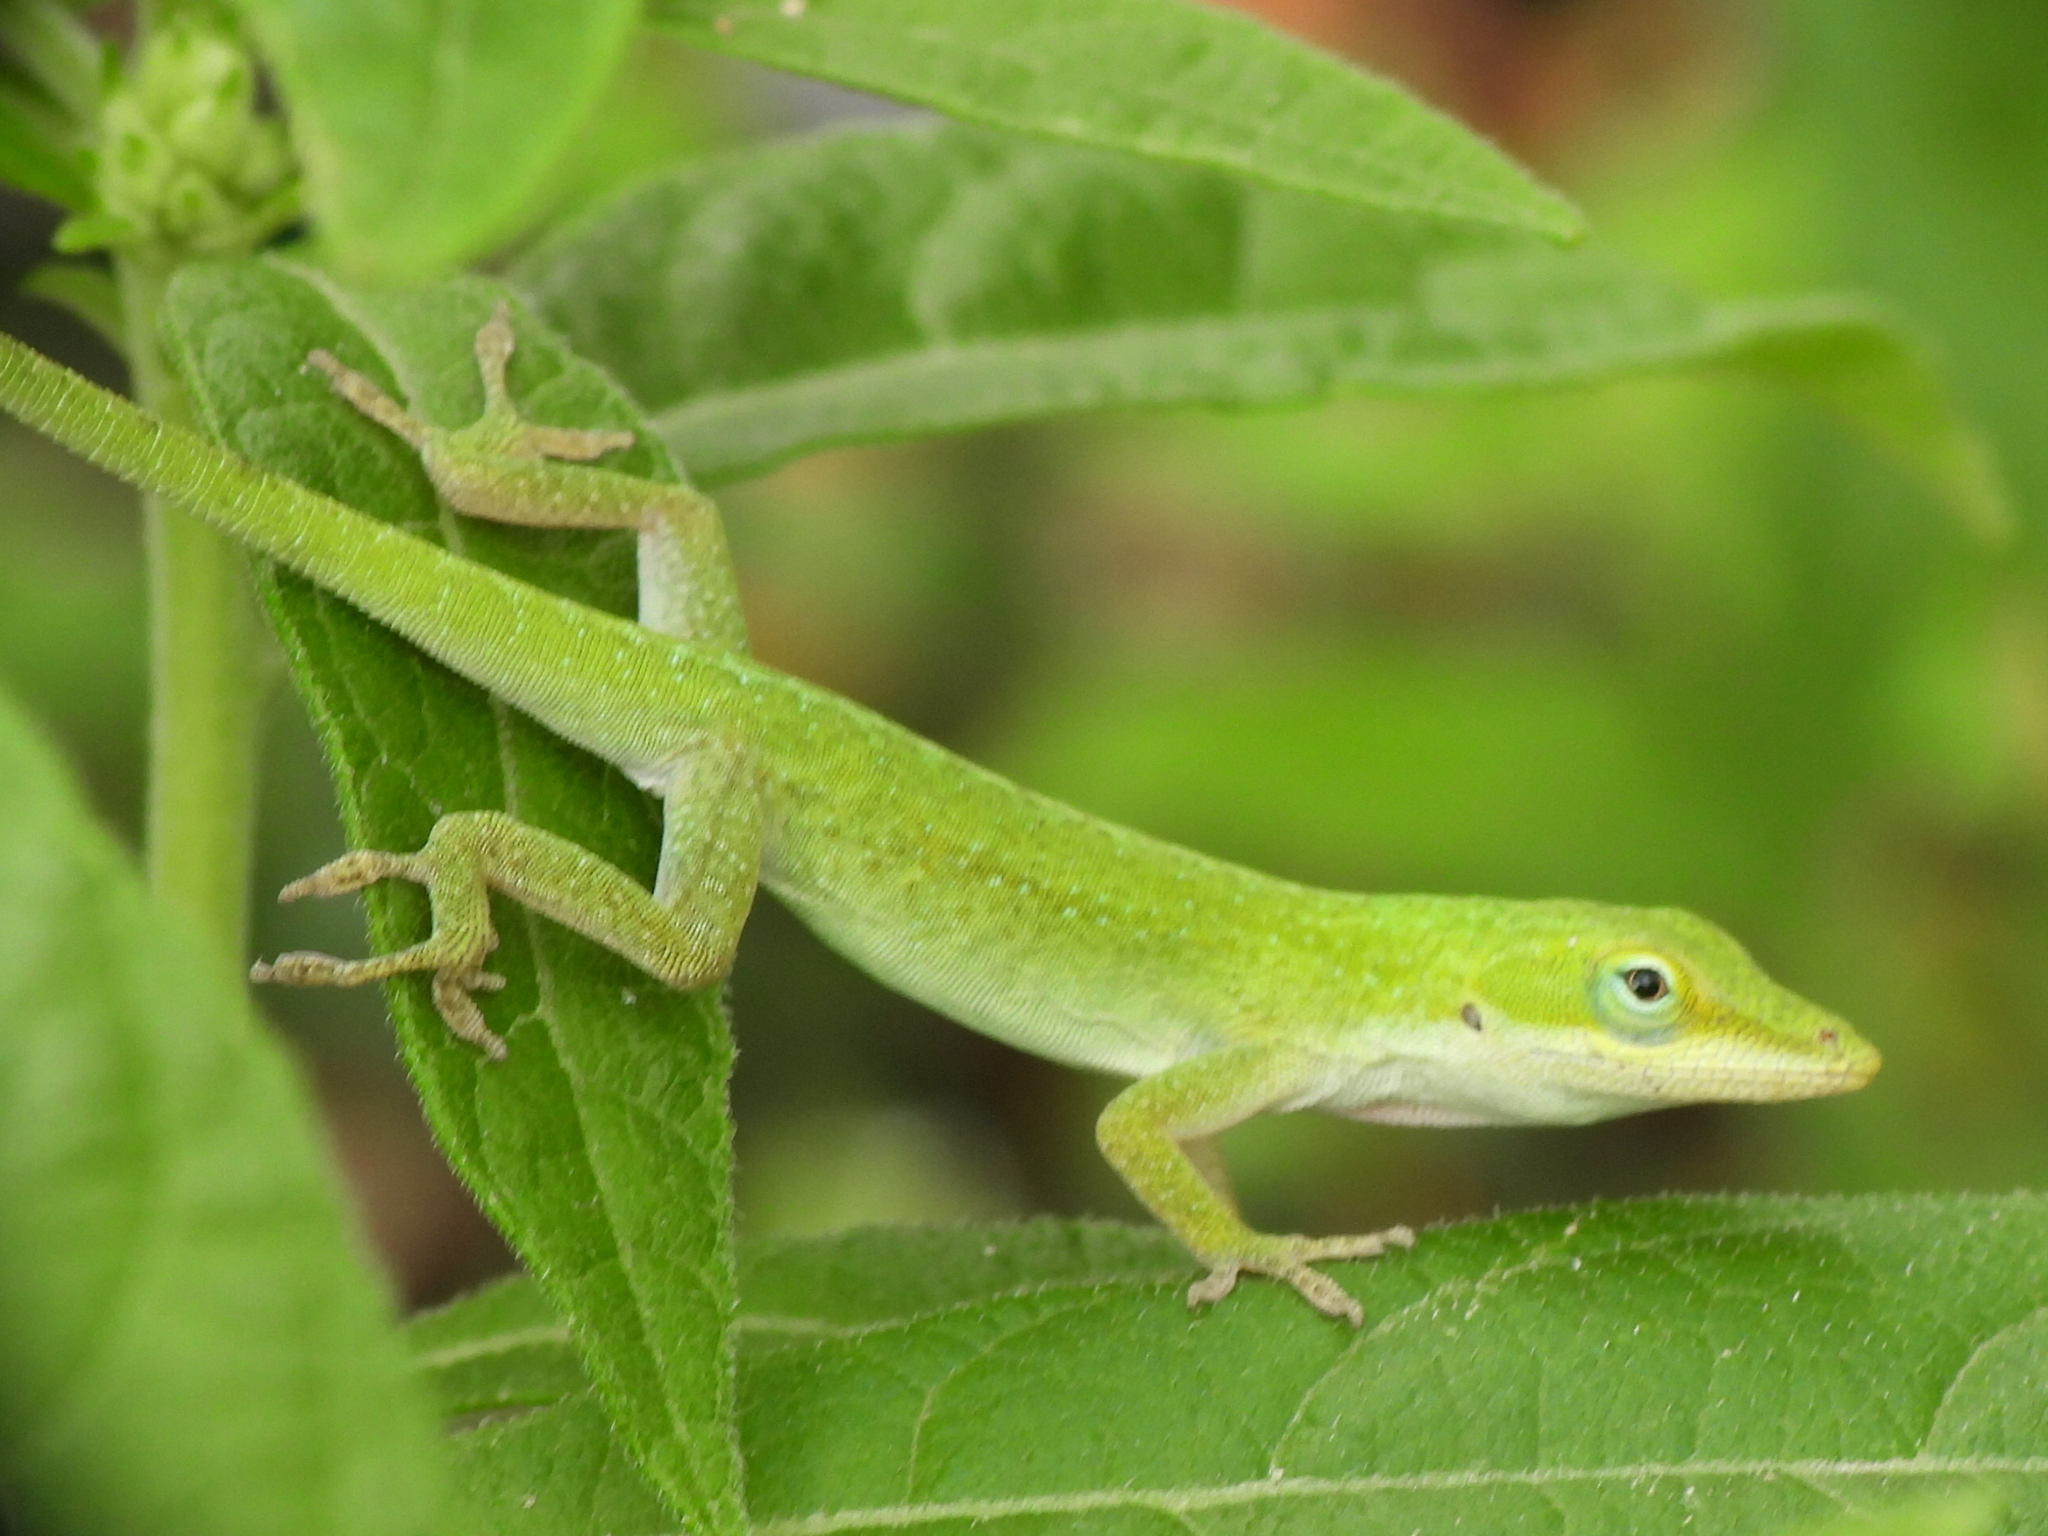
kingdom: Animalia
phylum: Chordata
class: Squamata
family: Dactyloidae
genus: Anolis
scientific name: Anolis carolinensis
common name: Green anole
